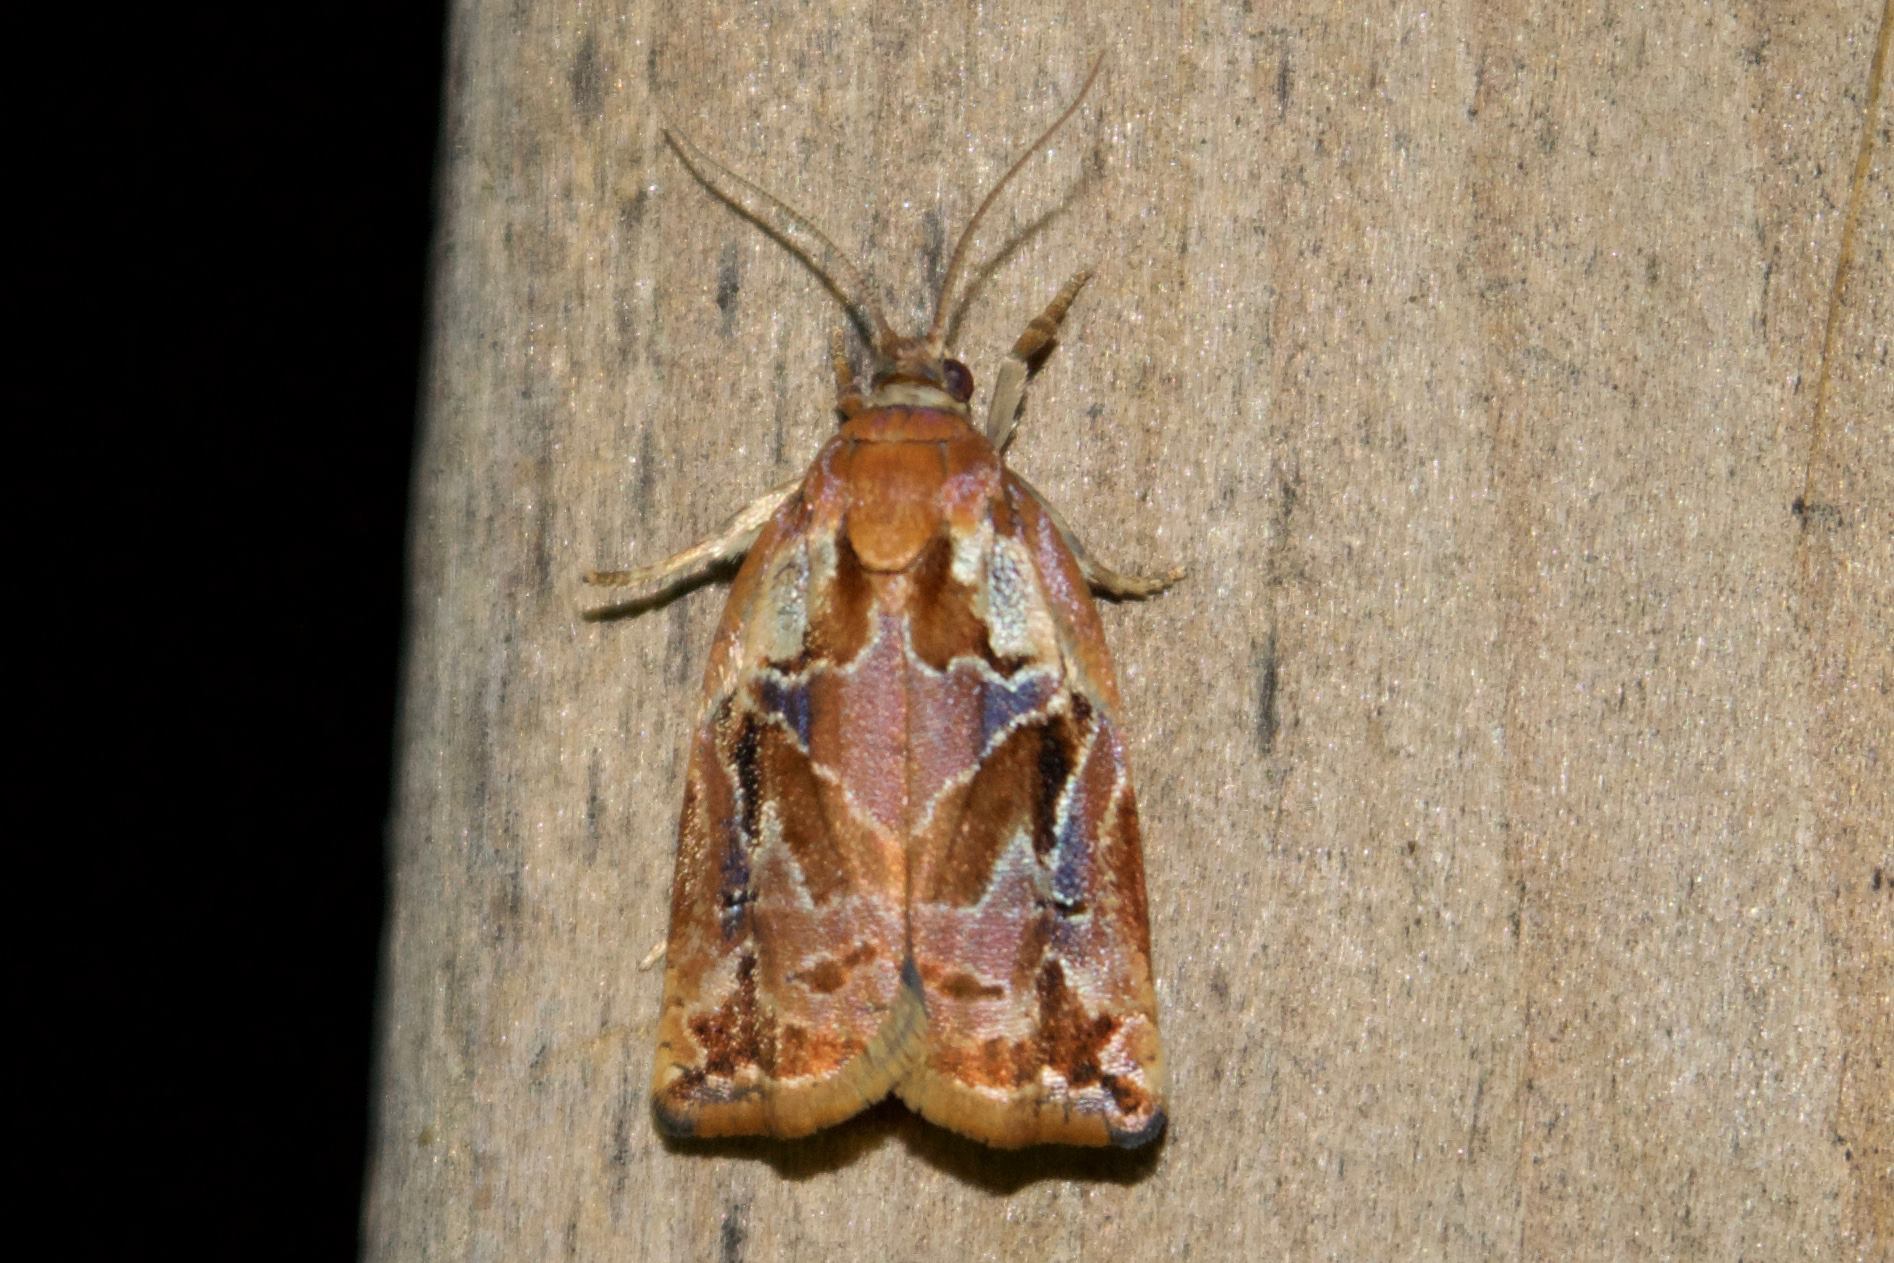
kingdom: Animalia
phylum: Arthropoda
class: Insecta
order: Lepidoptera
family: Tortricidae
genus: Archips
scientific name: Archips oporana
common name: Sprice tortrix moth
